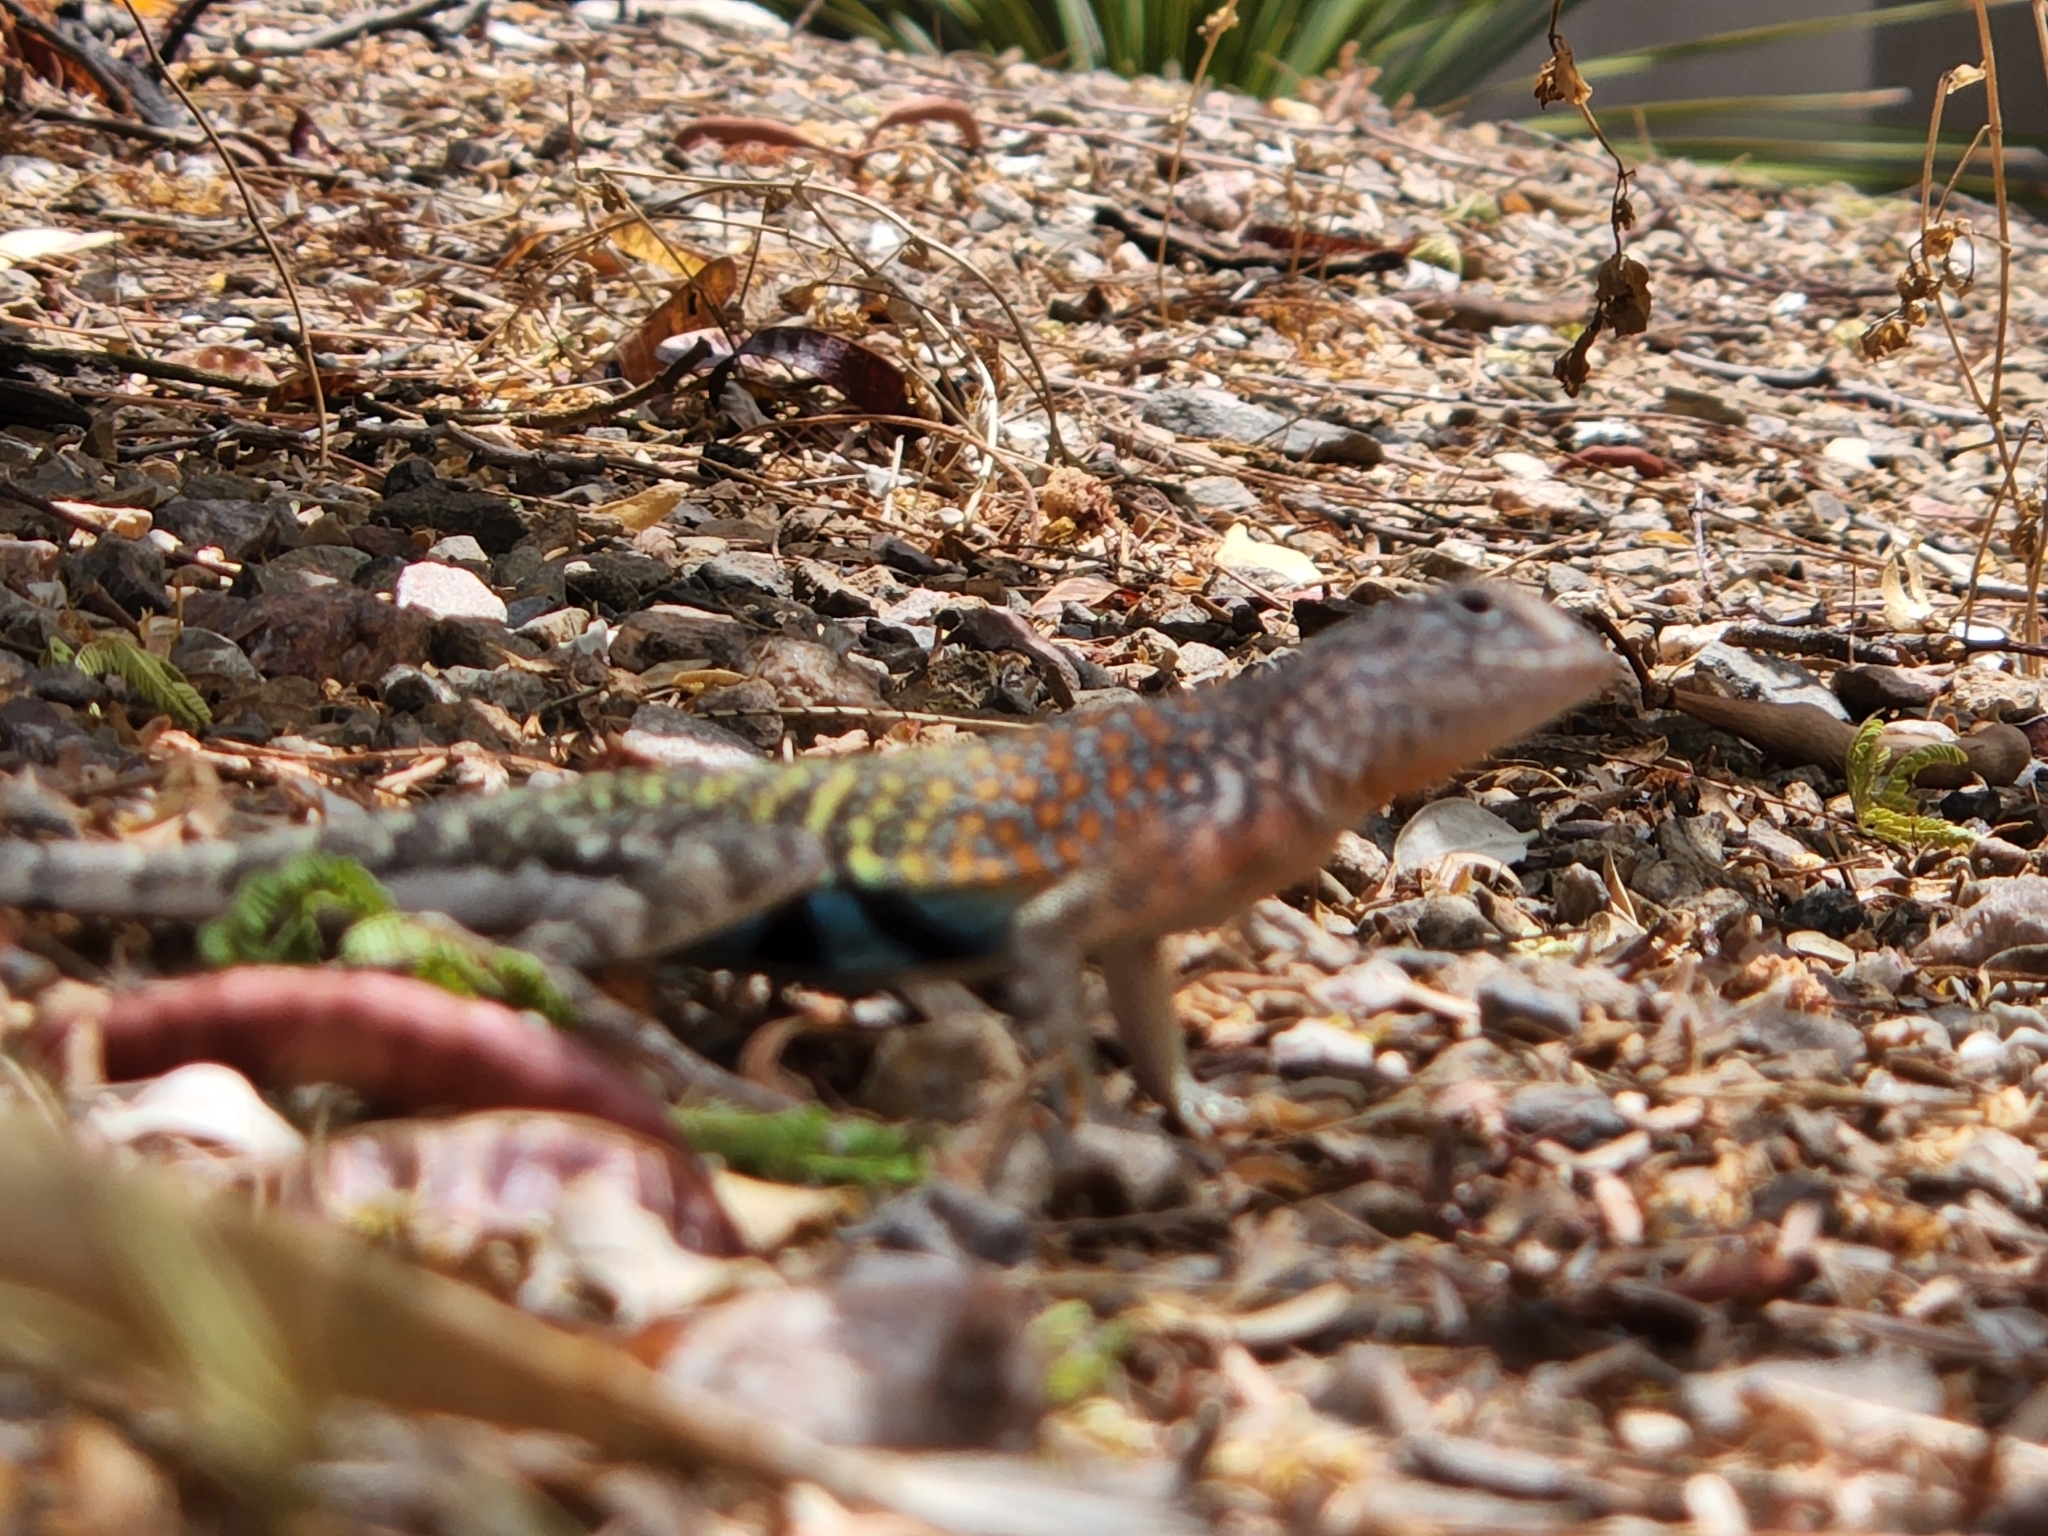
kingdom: Animalia
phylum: Chordata
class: Squamata
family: Phrynosomatidae
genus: Cophosaurus
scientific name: Cophosaurus texanus
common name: Greater earless lizard
